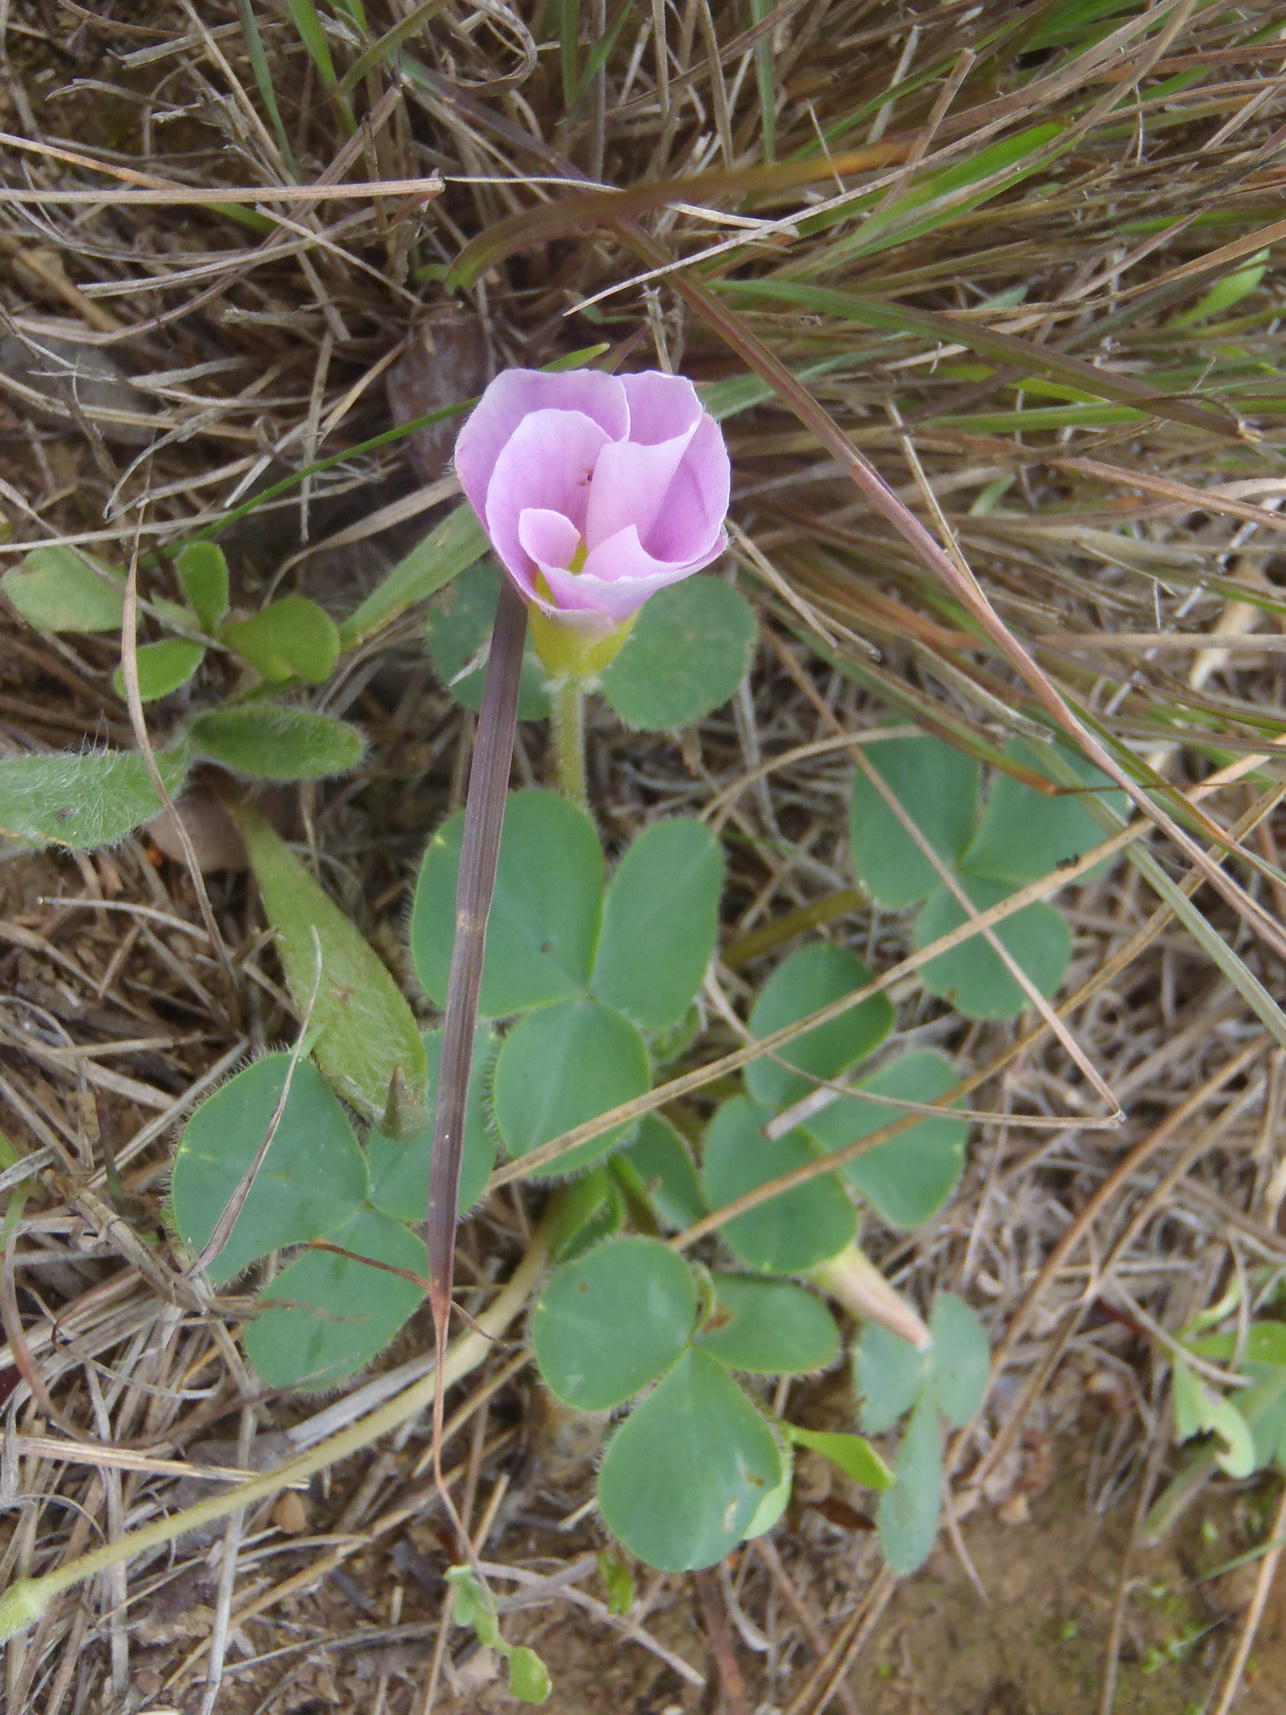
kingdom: Plantae
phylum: Tracheophyta
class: Magnoliopsida
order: Oxalidales
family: Oxalidaceae
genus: Oxalis
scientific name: Oxalis purpurea
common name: Purple woodsorrel
